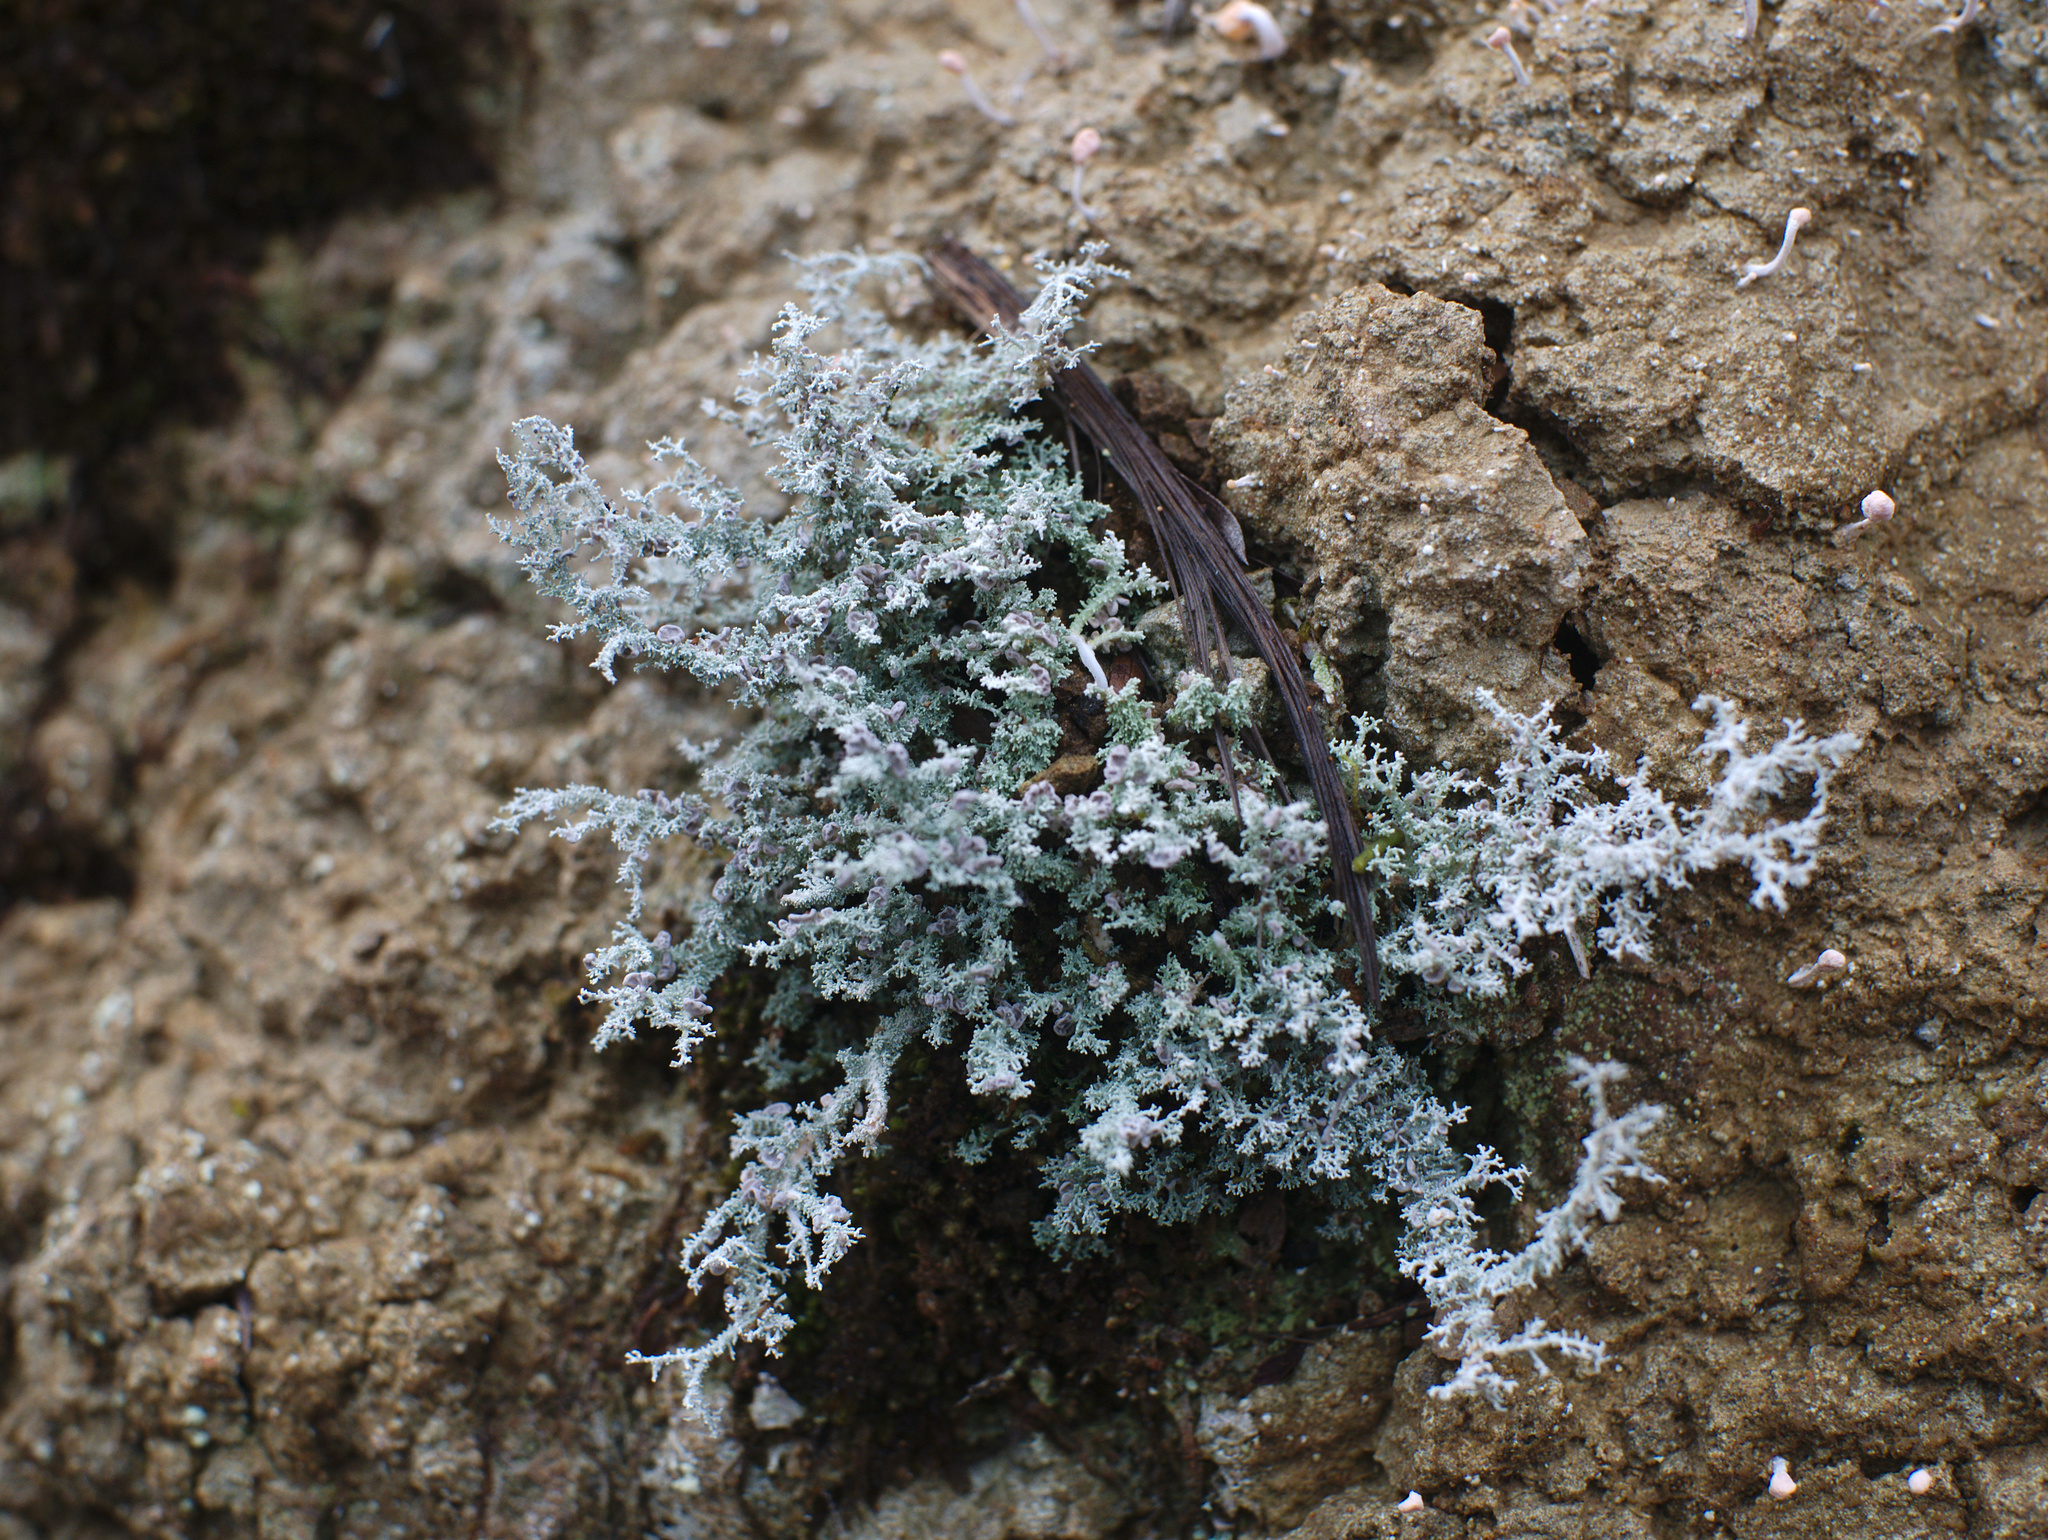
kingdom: Fungi
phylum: Ascomycota
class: Lecanoromycetes
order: Lecanorales
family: Stereocaulaceae
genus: Stereocaulon
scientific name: Stereocaulon ramulosum
